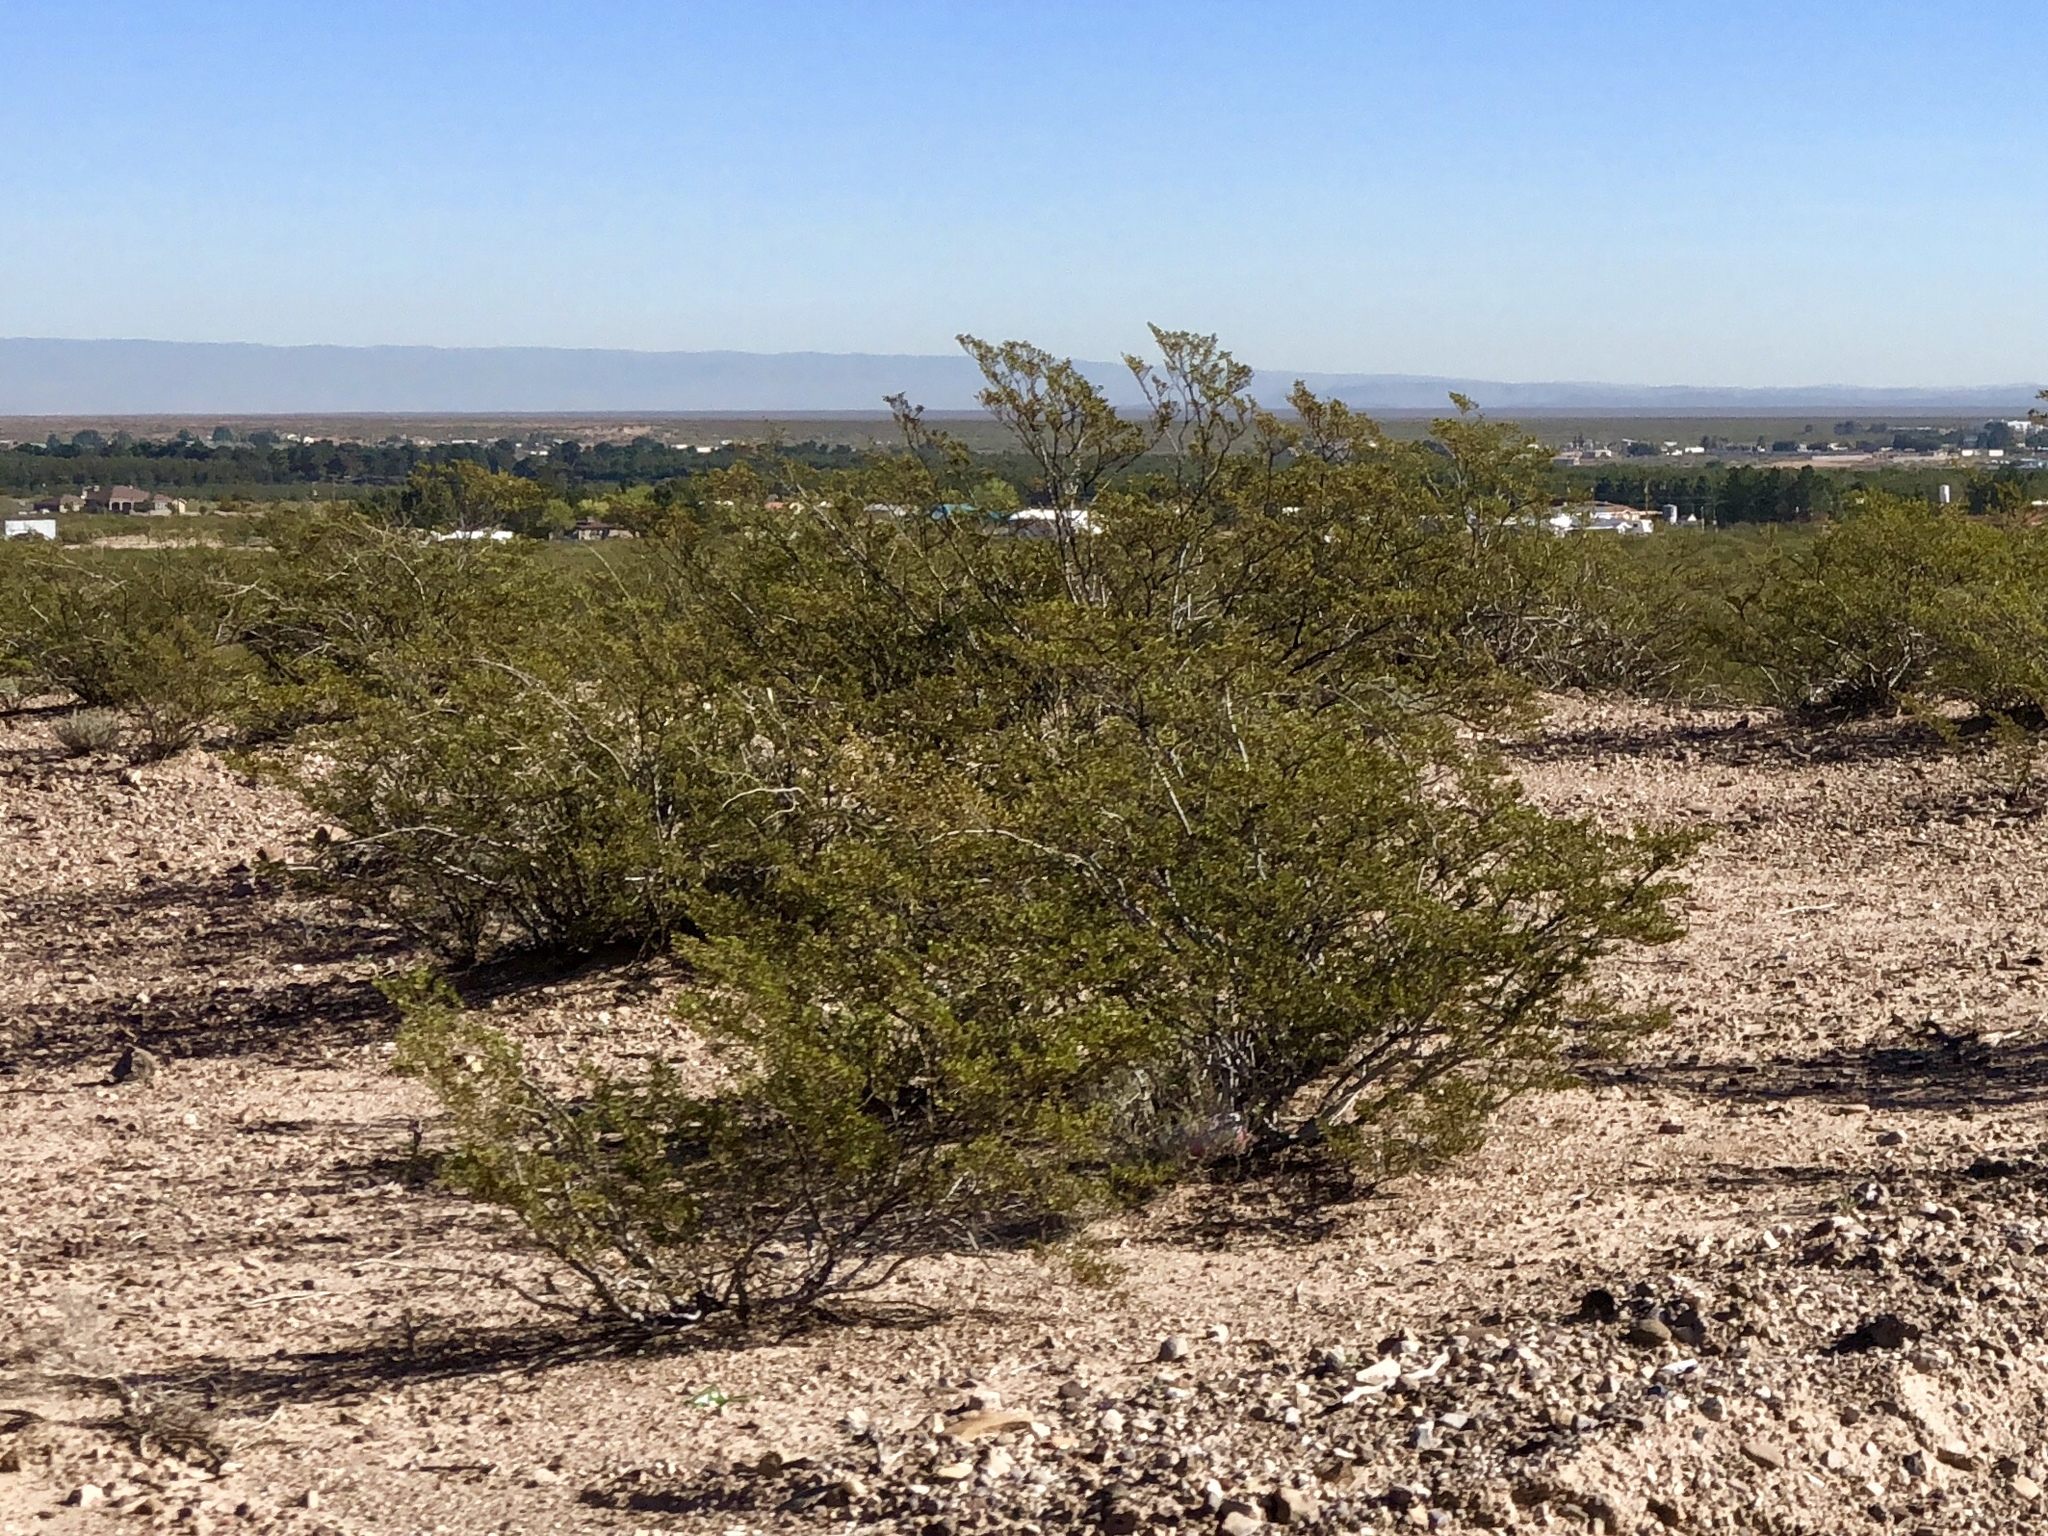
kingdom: Plantae
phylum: Tracheophyta
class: Magnoliopsida
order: Zygophyllales
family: Zygophyllaceae
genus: Larrea
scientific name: Larrea tridentata
